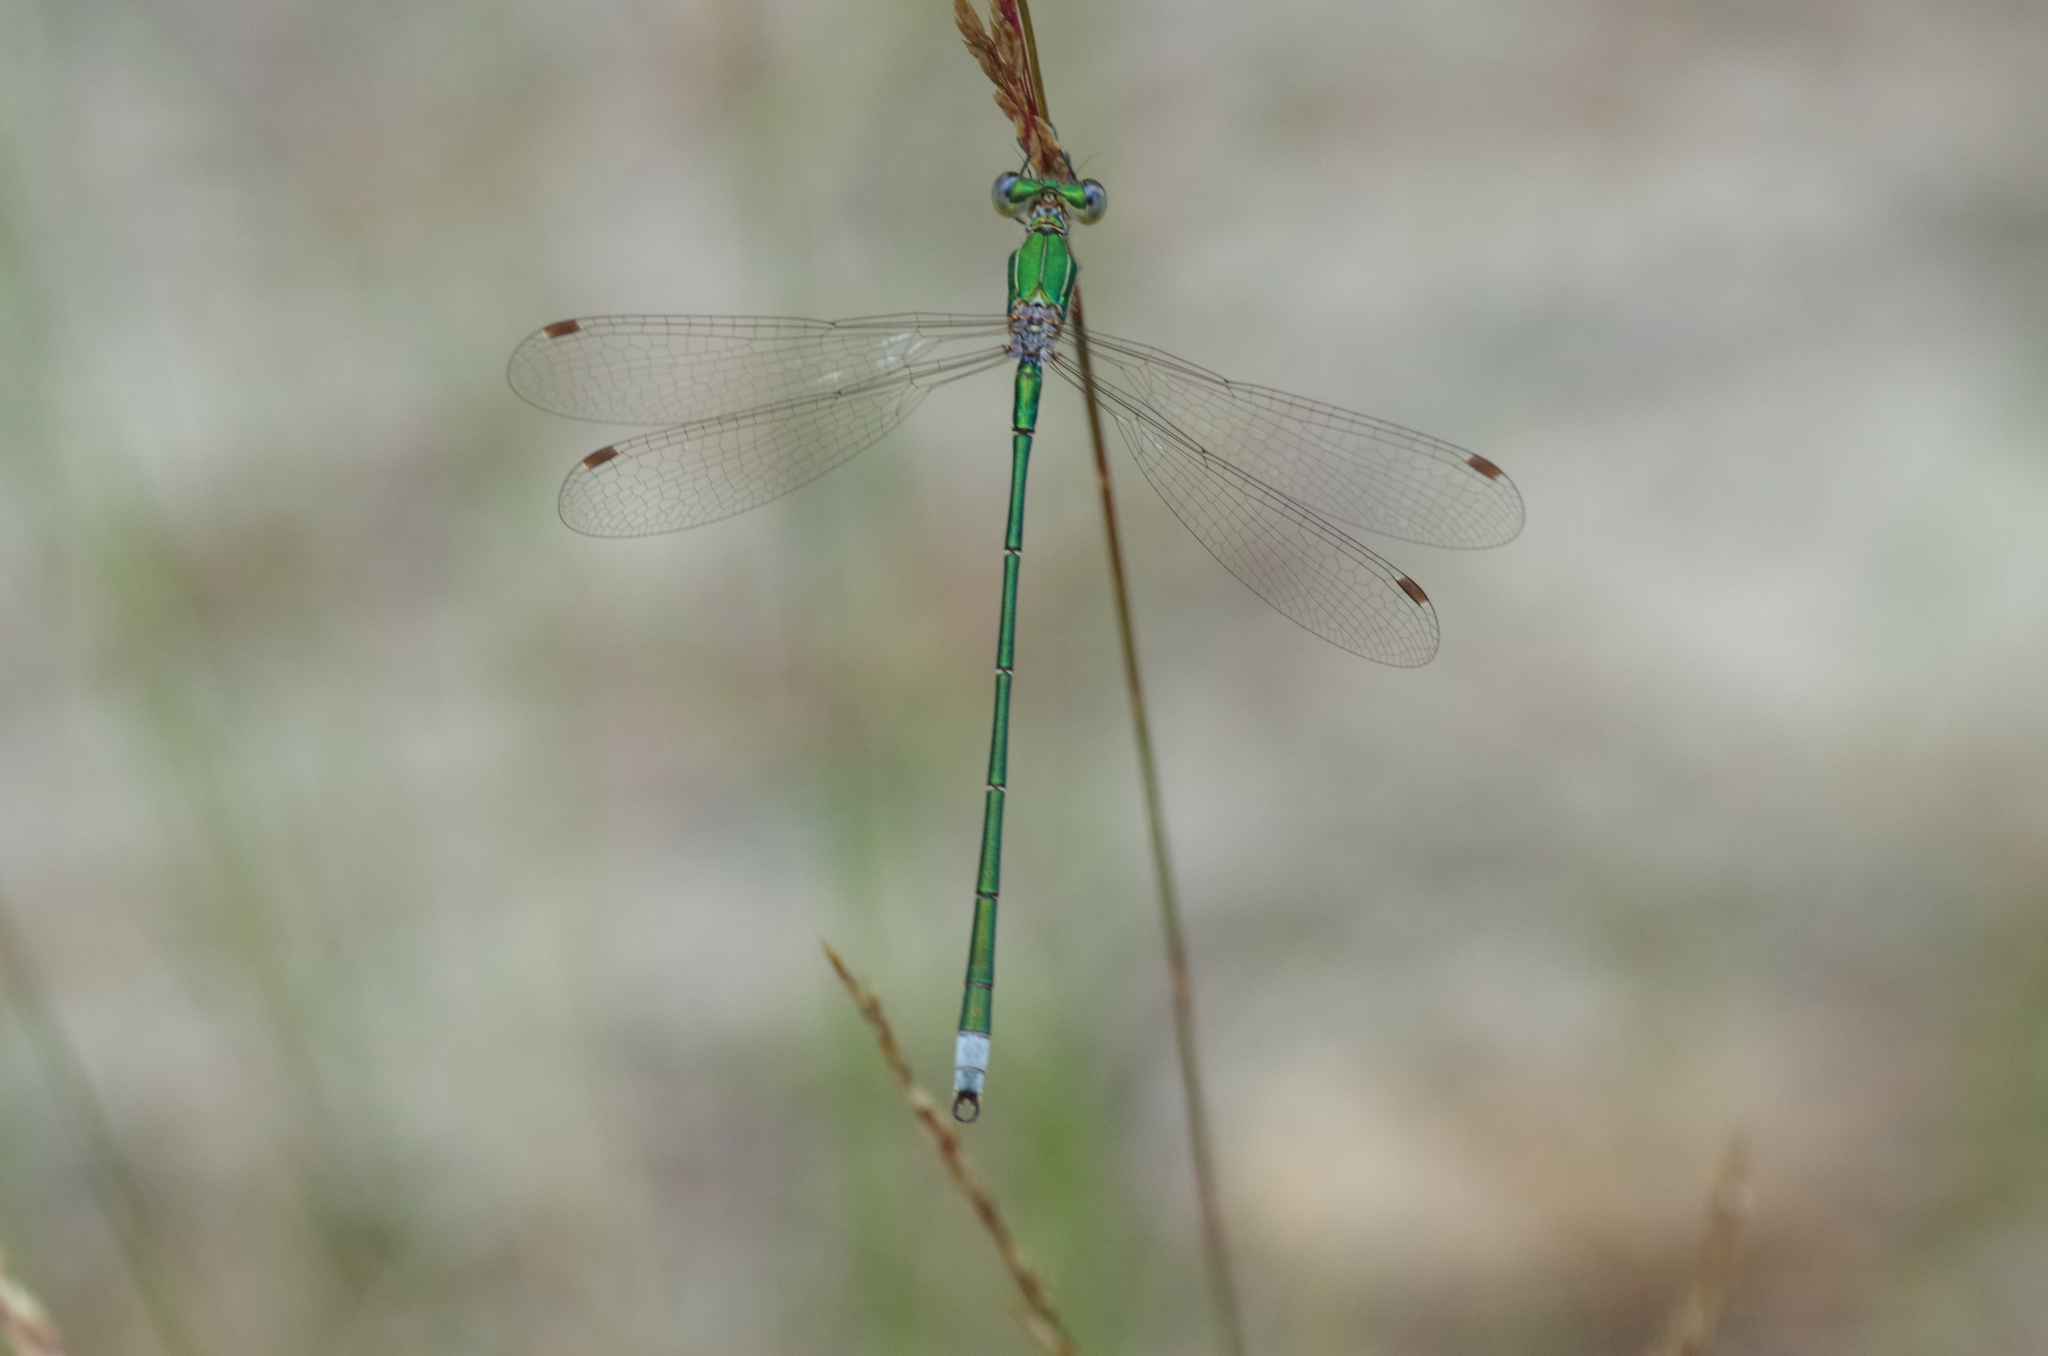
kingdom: Animalia
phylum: Arthropoda
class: Insecta
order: Odonata
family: Lestidae
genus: Lestes
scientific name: Lestes virens
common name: Small emerald spreadwing
